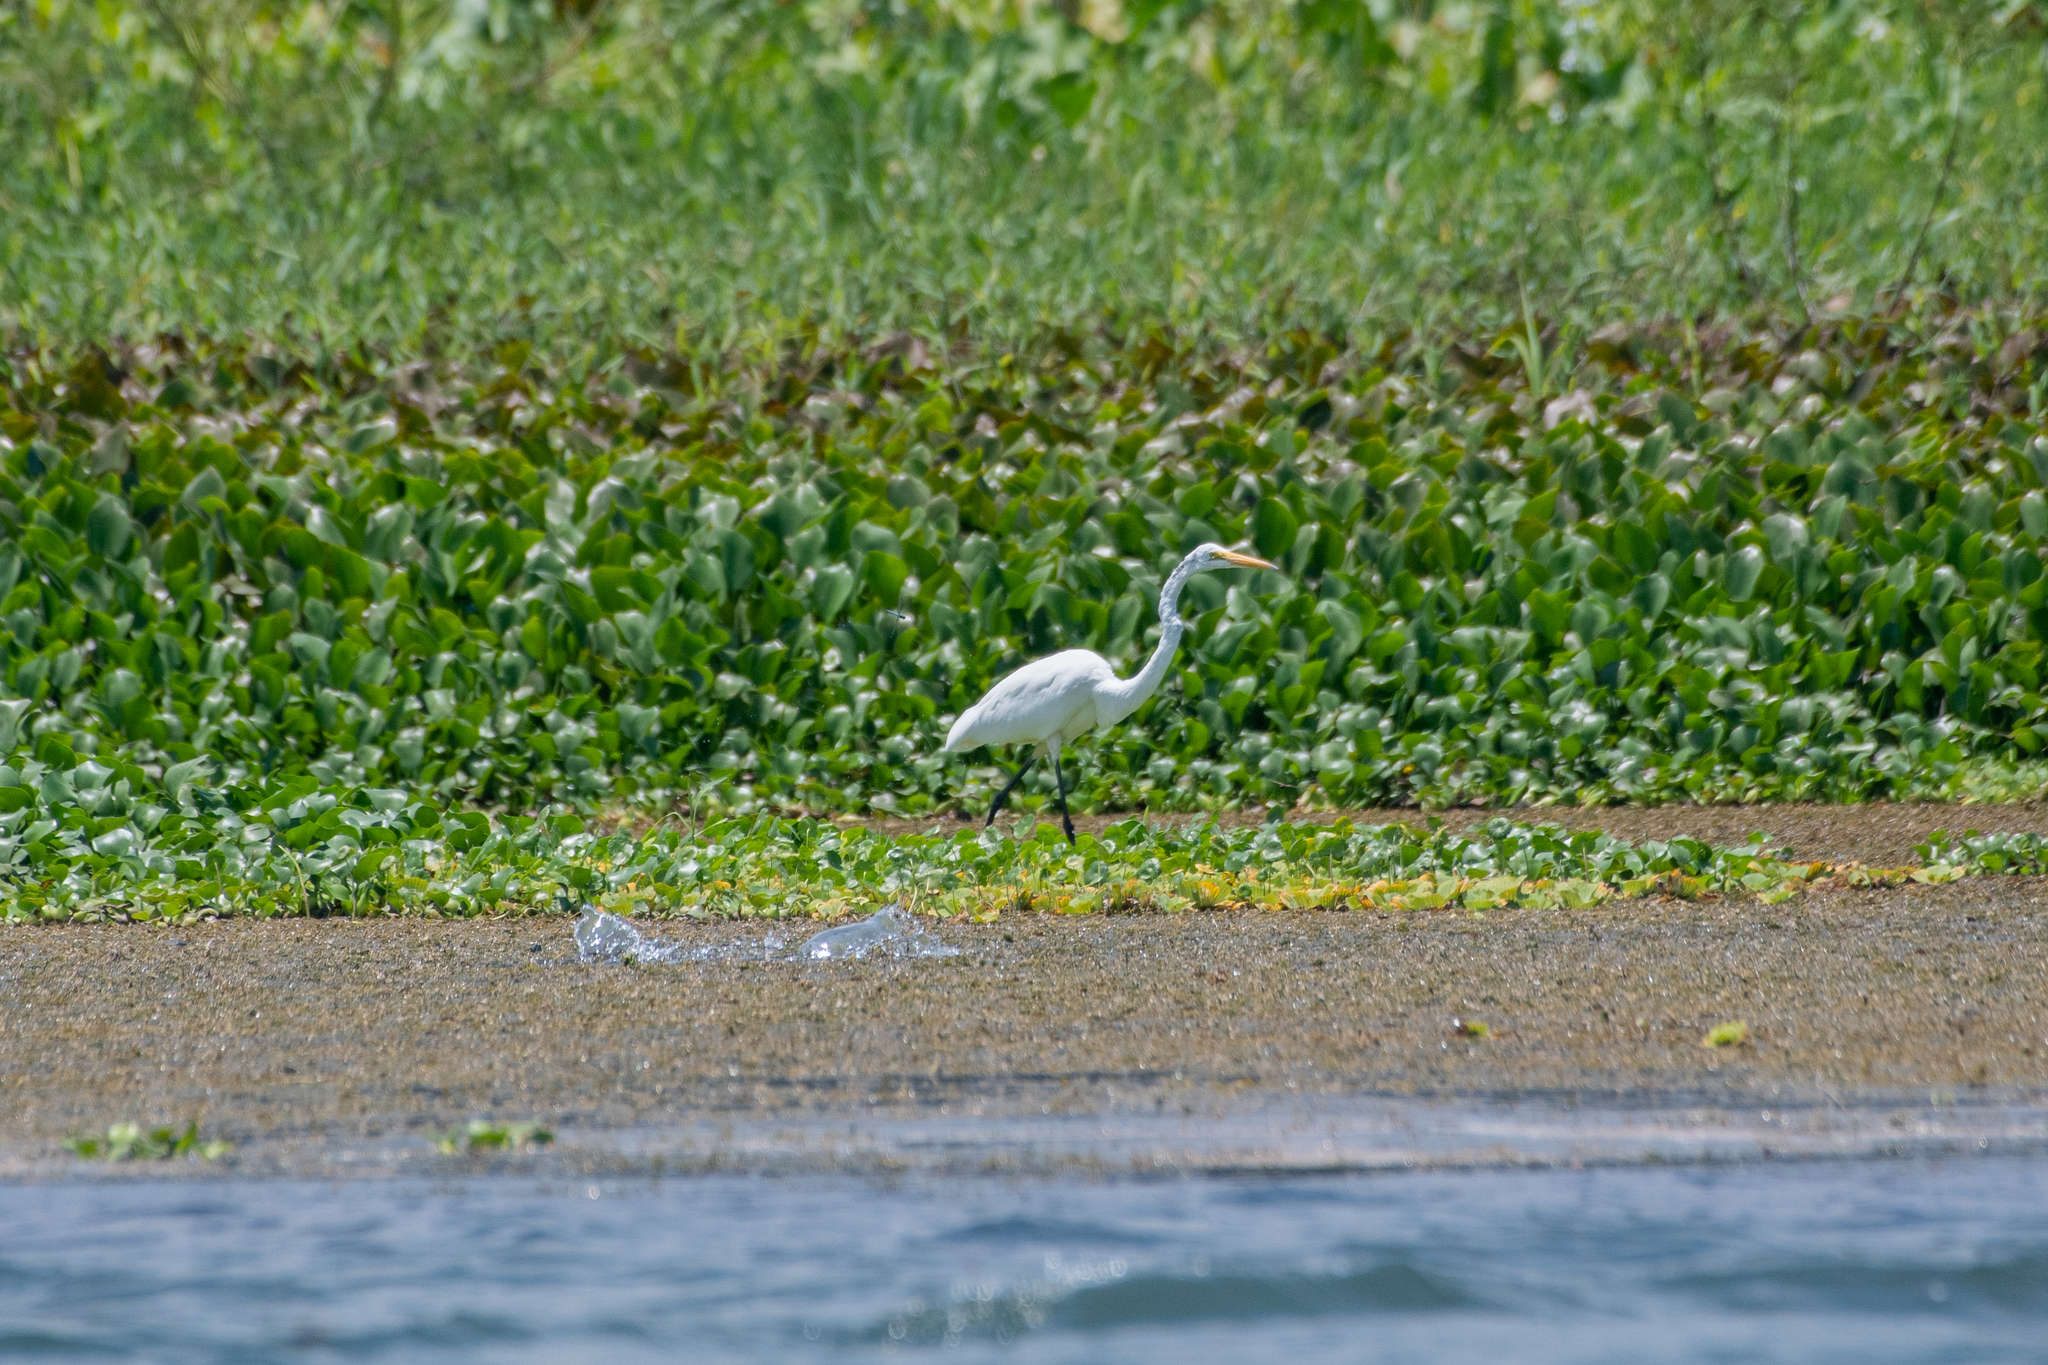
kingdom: Animalia
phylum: Chordata
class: Aves
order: Pelecaniformes
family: Ardeidae
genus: Ardea
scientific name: Ardea alba
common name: Great egret
